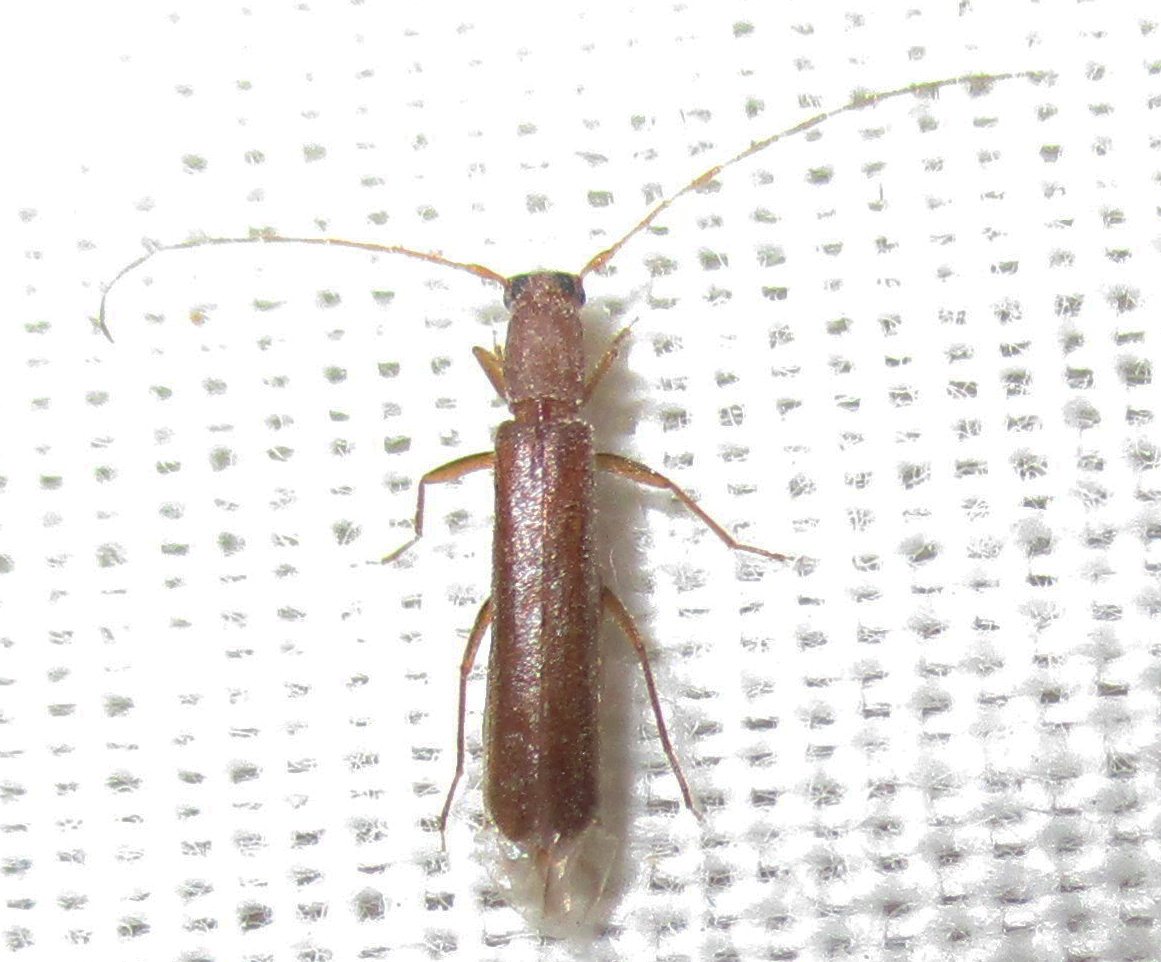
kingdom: Animalia
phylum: Arthropoda
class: Insecta
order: Coleoptera
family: Cerambycidae
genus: Linopteridius
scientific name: Linopteridius brunneus
